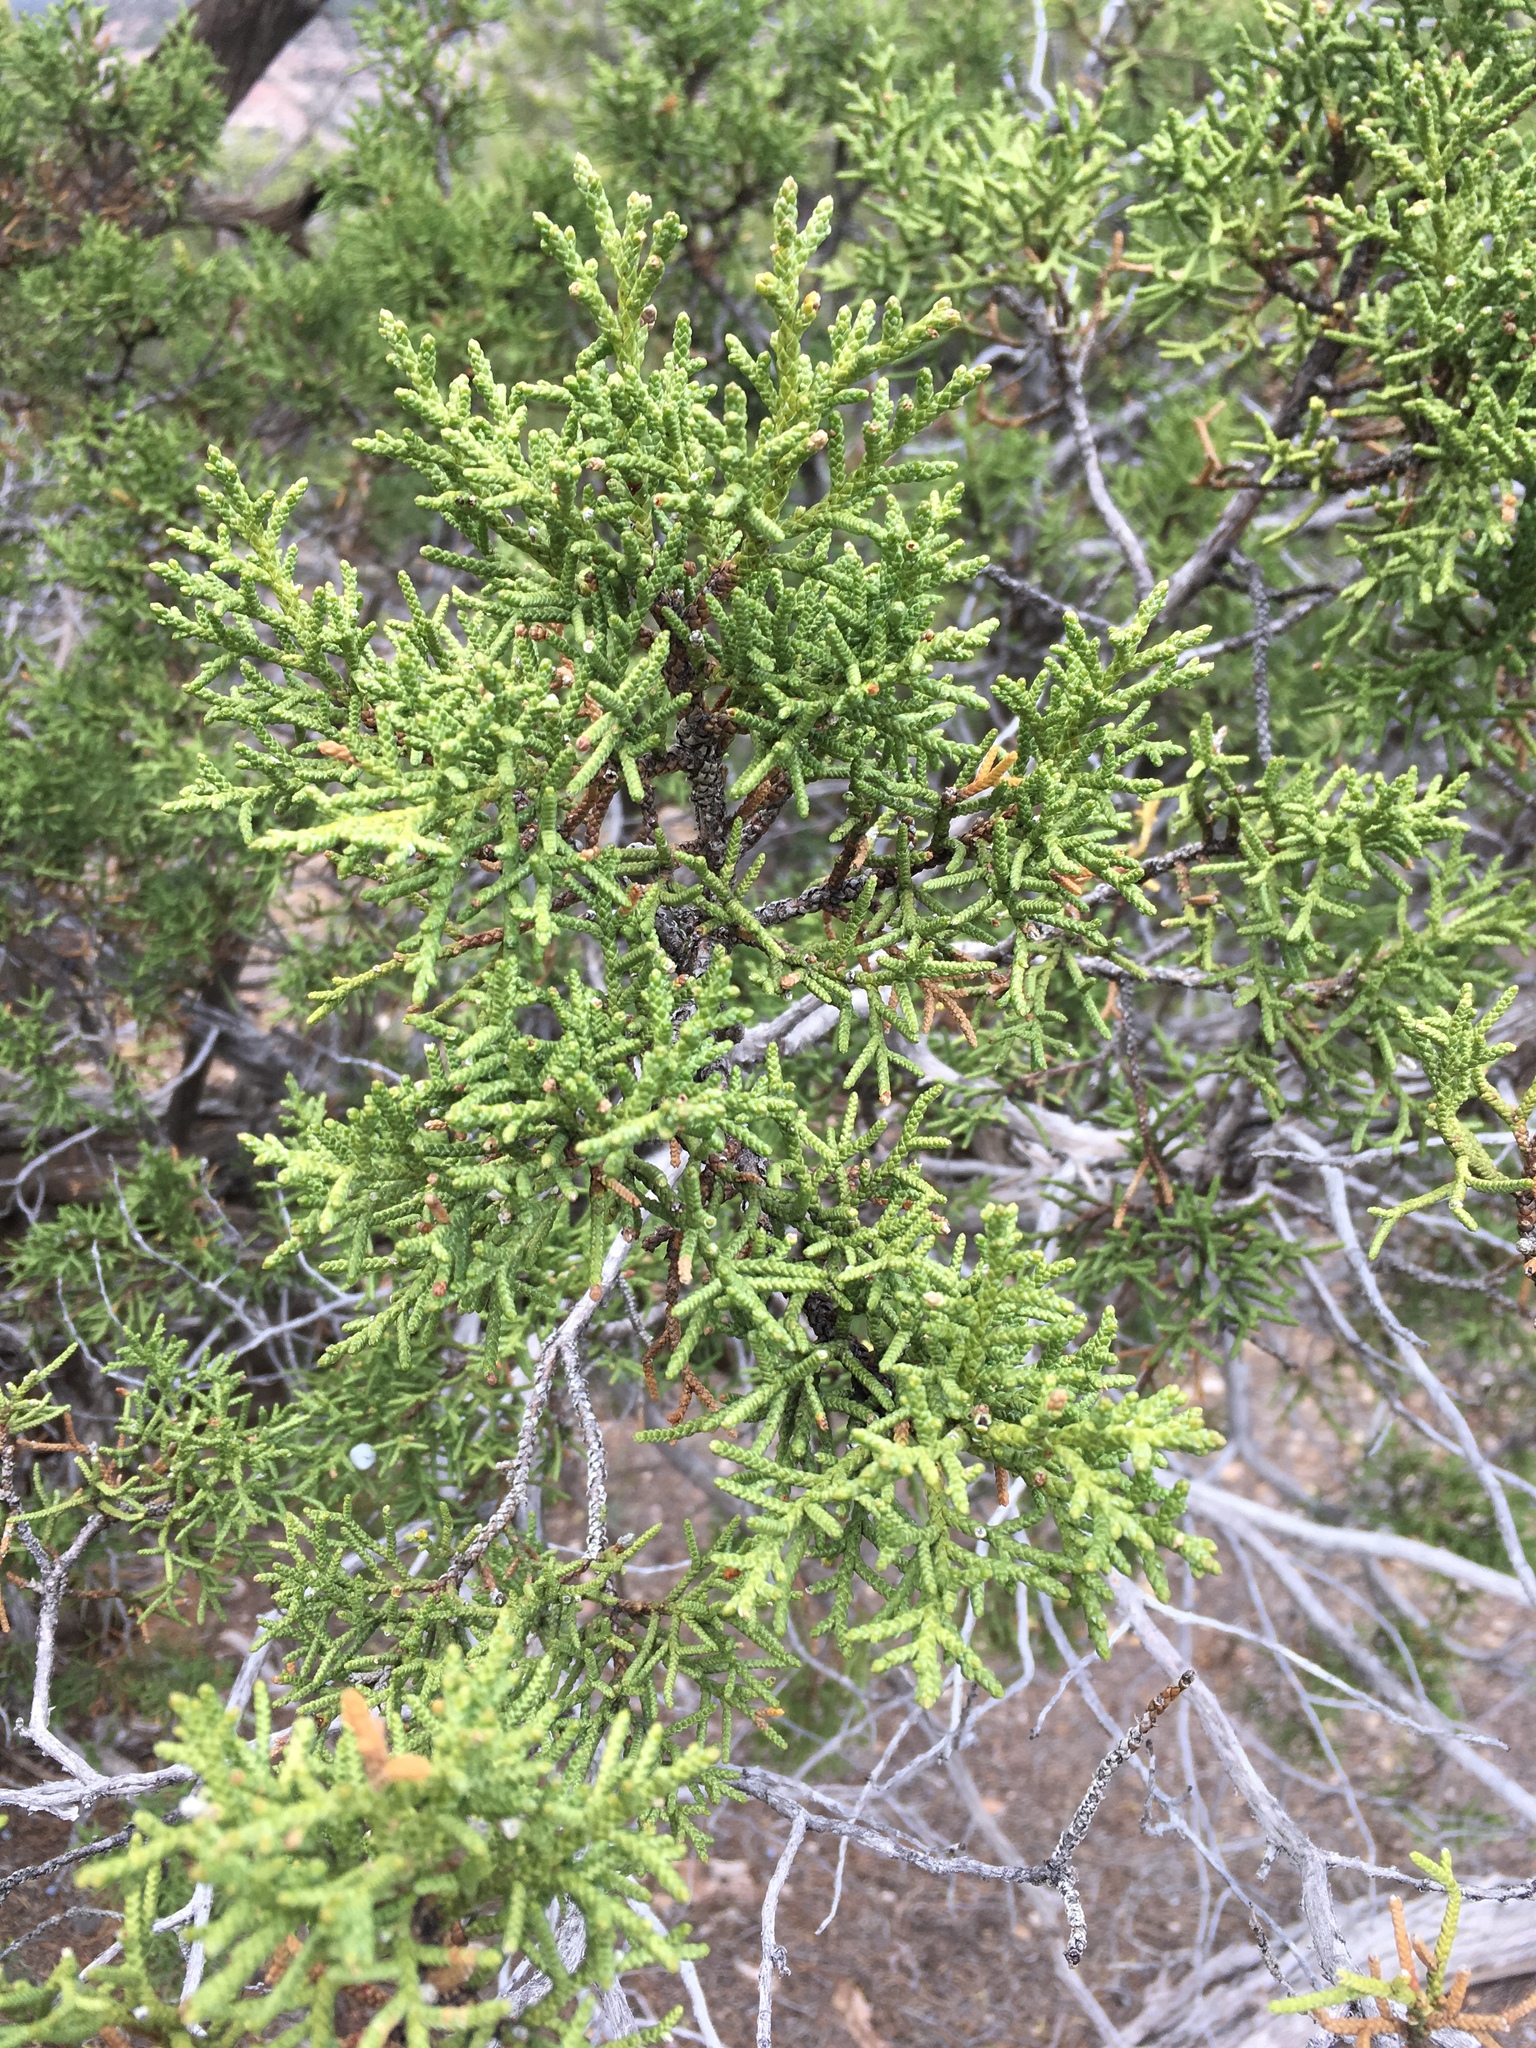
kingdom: Plantae
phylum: Tracheophyta
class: Pinopsida
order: Pinales
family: Cupressaceae
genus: Juniperus
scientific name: Juniperus osteosperma
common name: Utah juniper
